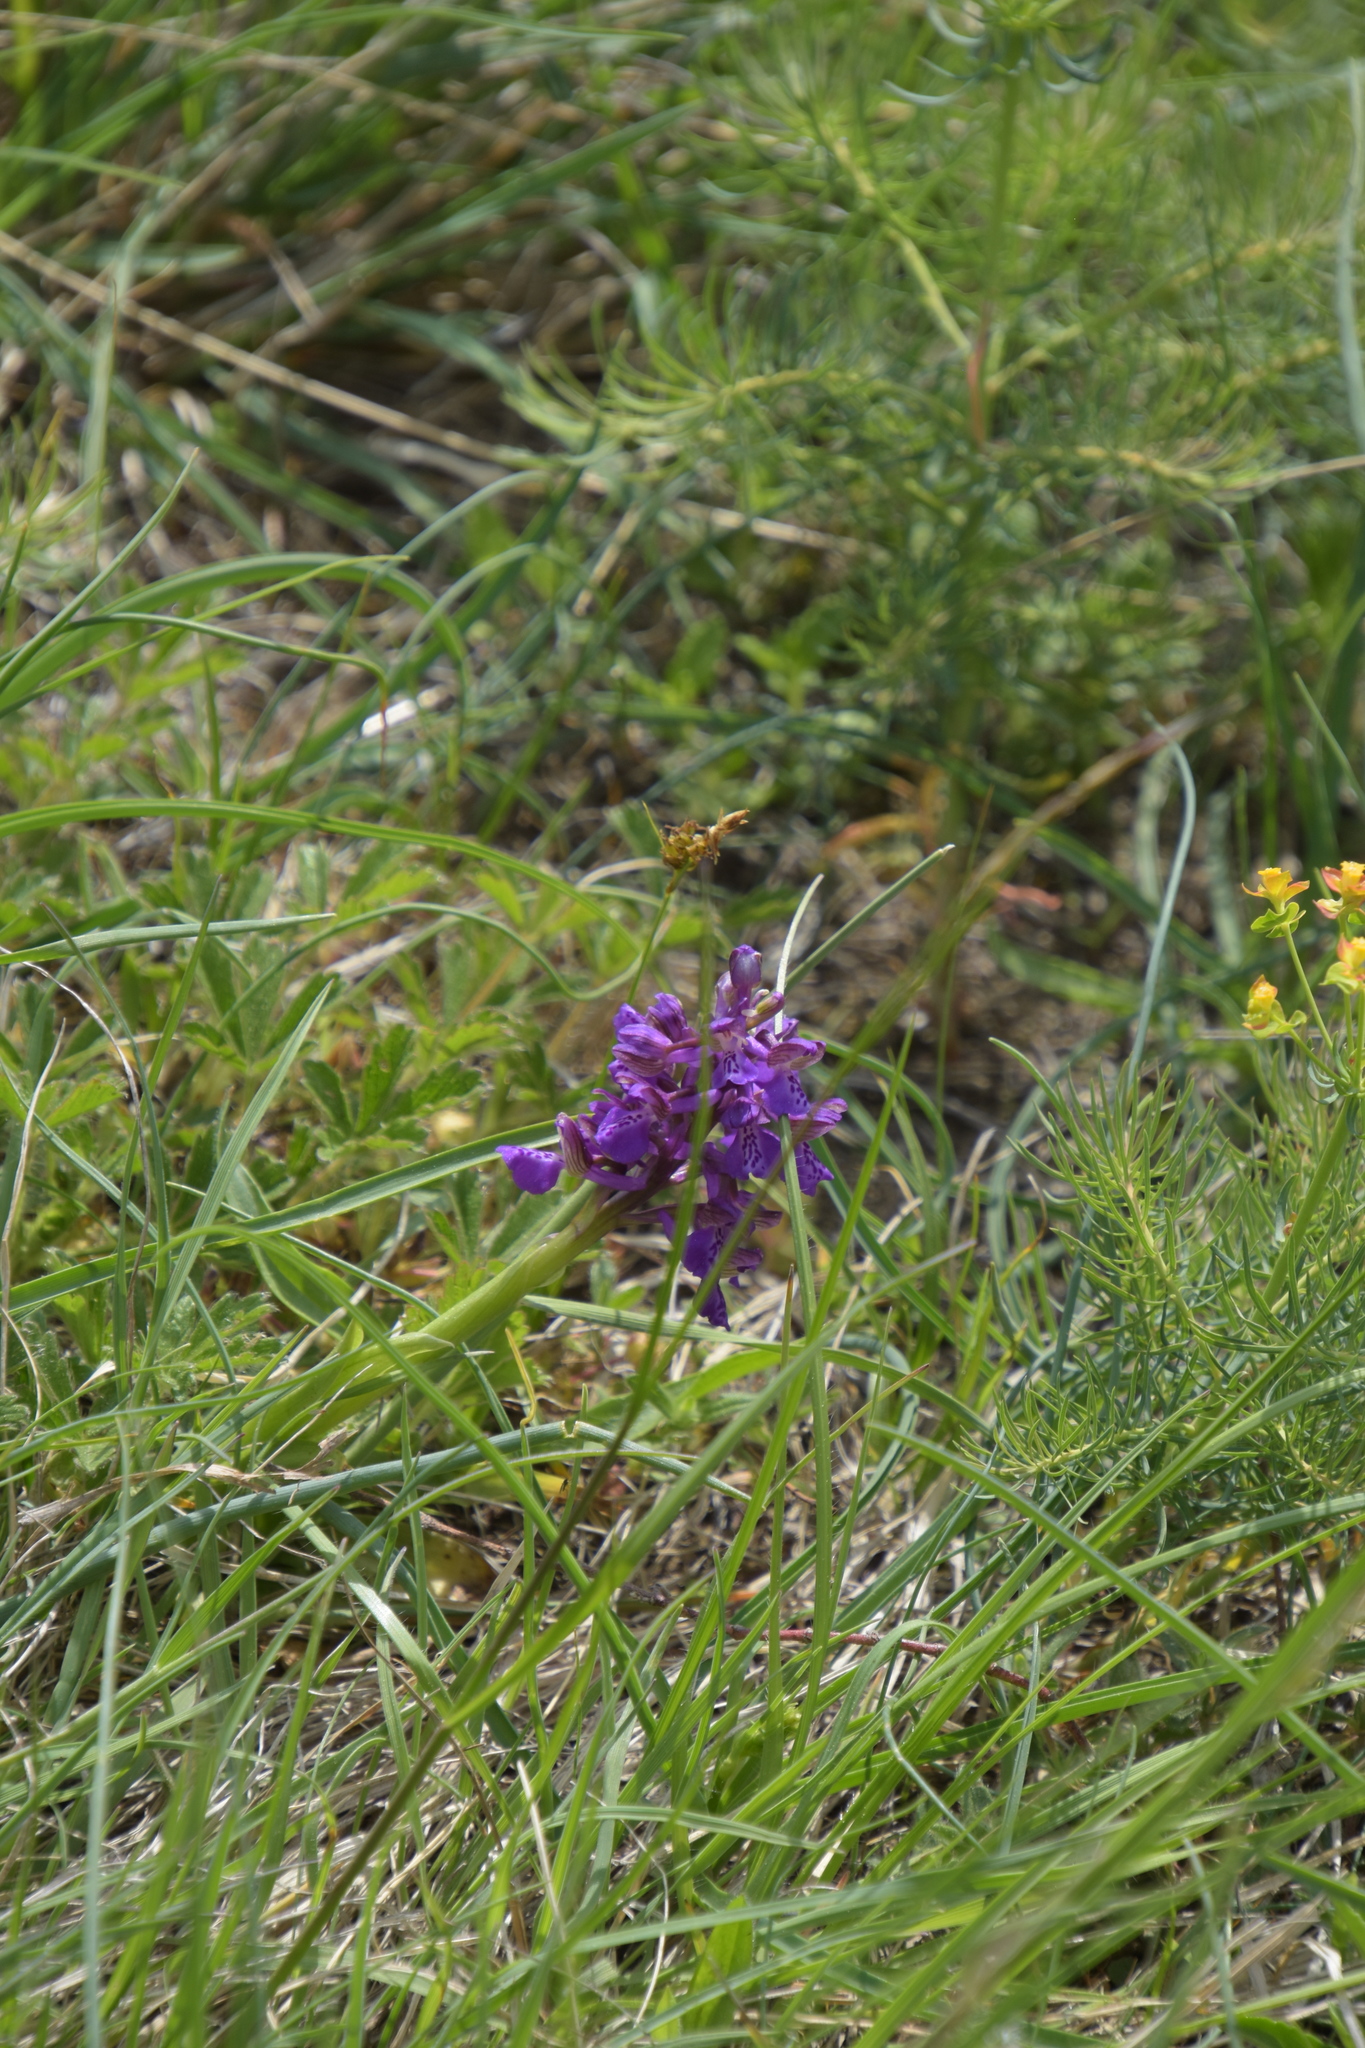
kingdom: Plantae
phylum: Tracheophyta
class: Liliopsida
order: Asparagales
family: Orchidaceae
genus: Anacamptis
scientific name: Anacamptis morio
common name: Green-winged orchid
